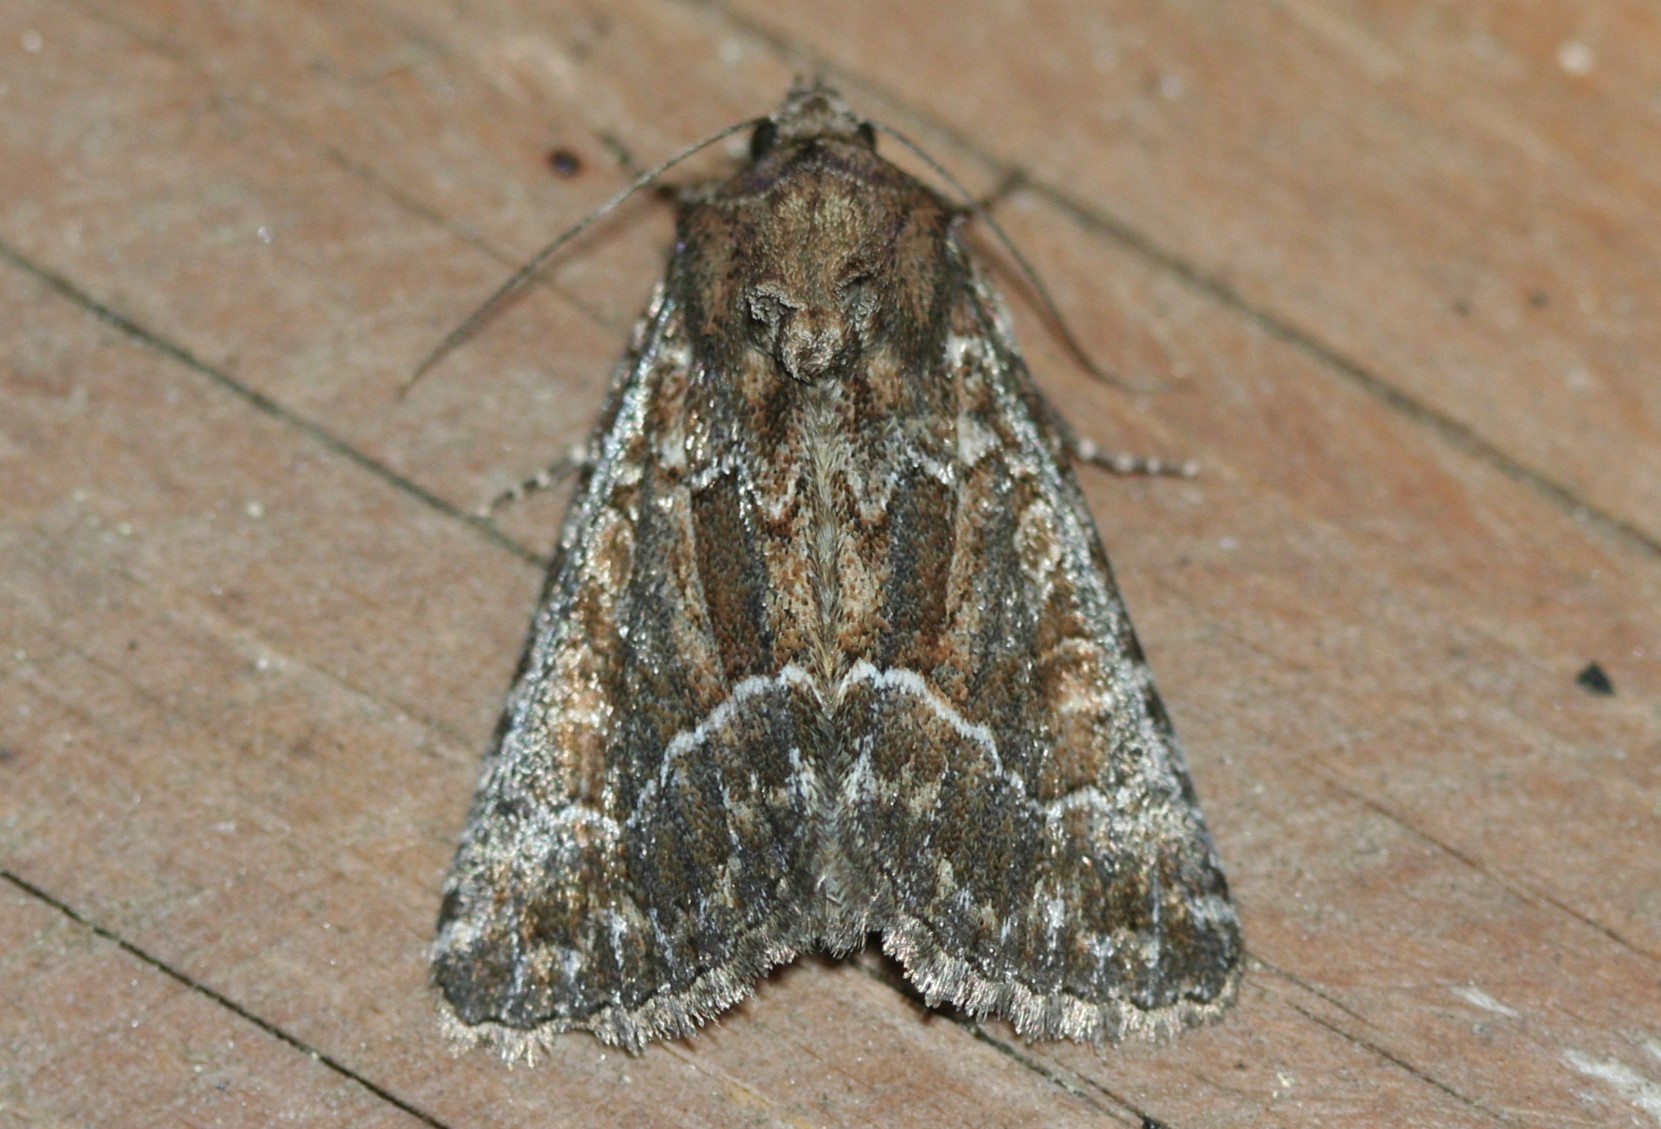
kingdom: Animalia
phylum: Arthropoda
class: Insecta
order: Lepidoptera
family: Noctuidae
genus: Thalpophila
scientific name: Thalpophila matura
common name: Straw underwing
